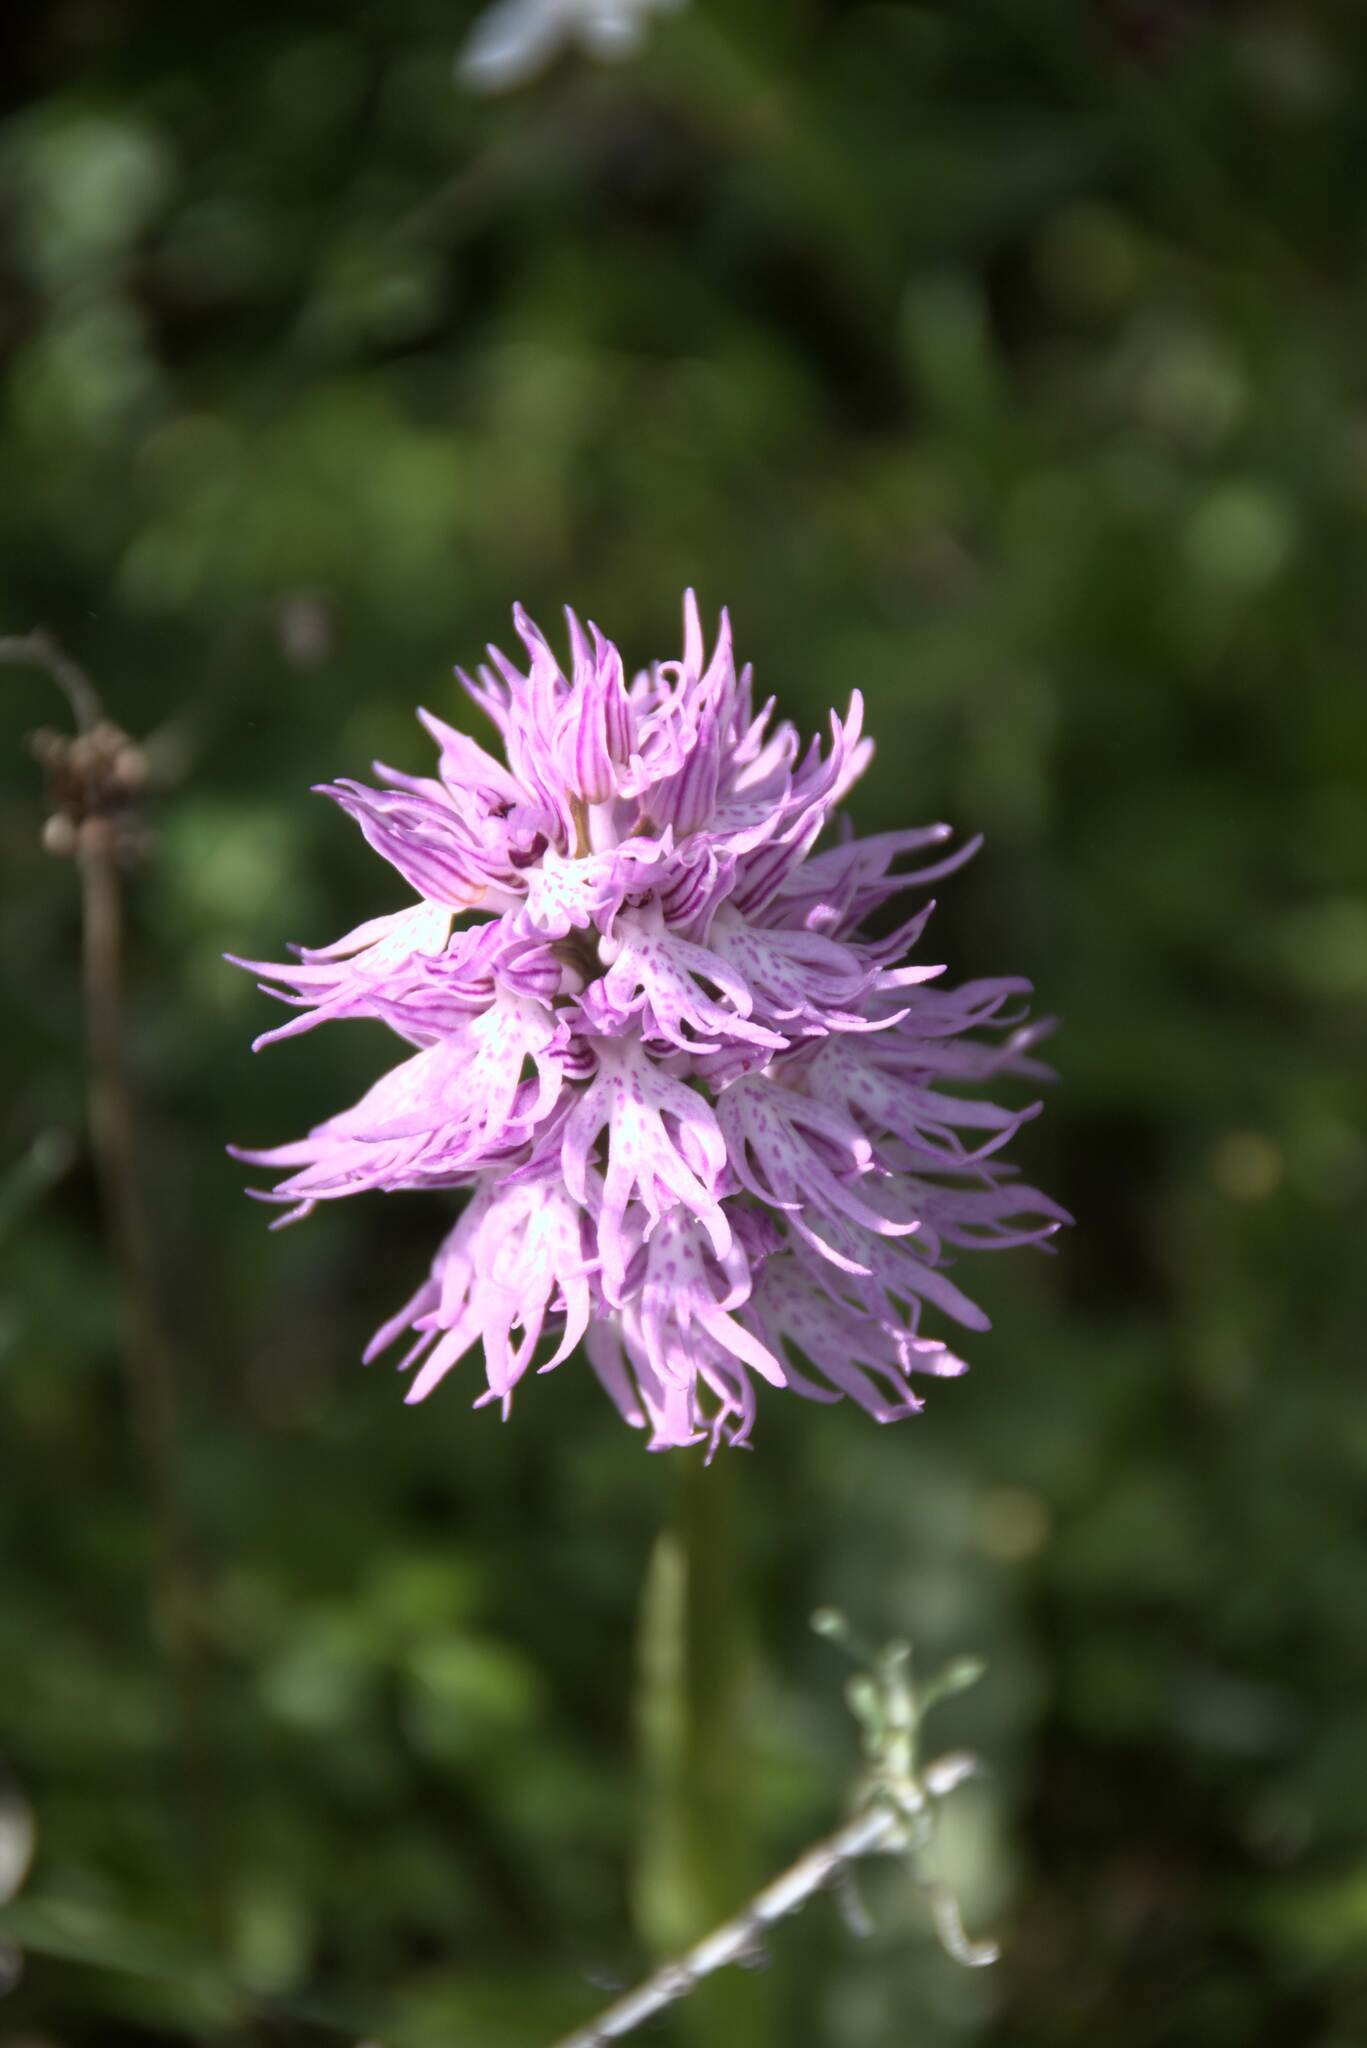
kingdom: Plantae
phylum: Tracheophyta
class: Liliopsida
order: Asparagales
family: Orchidaceae
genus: Orchis
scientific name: Orchis italica
